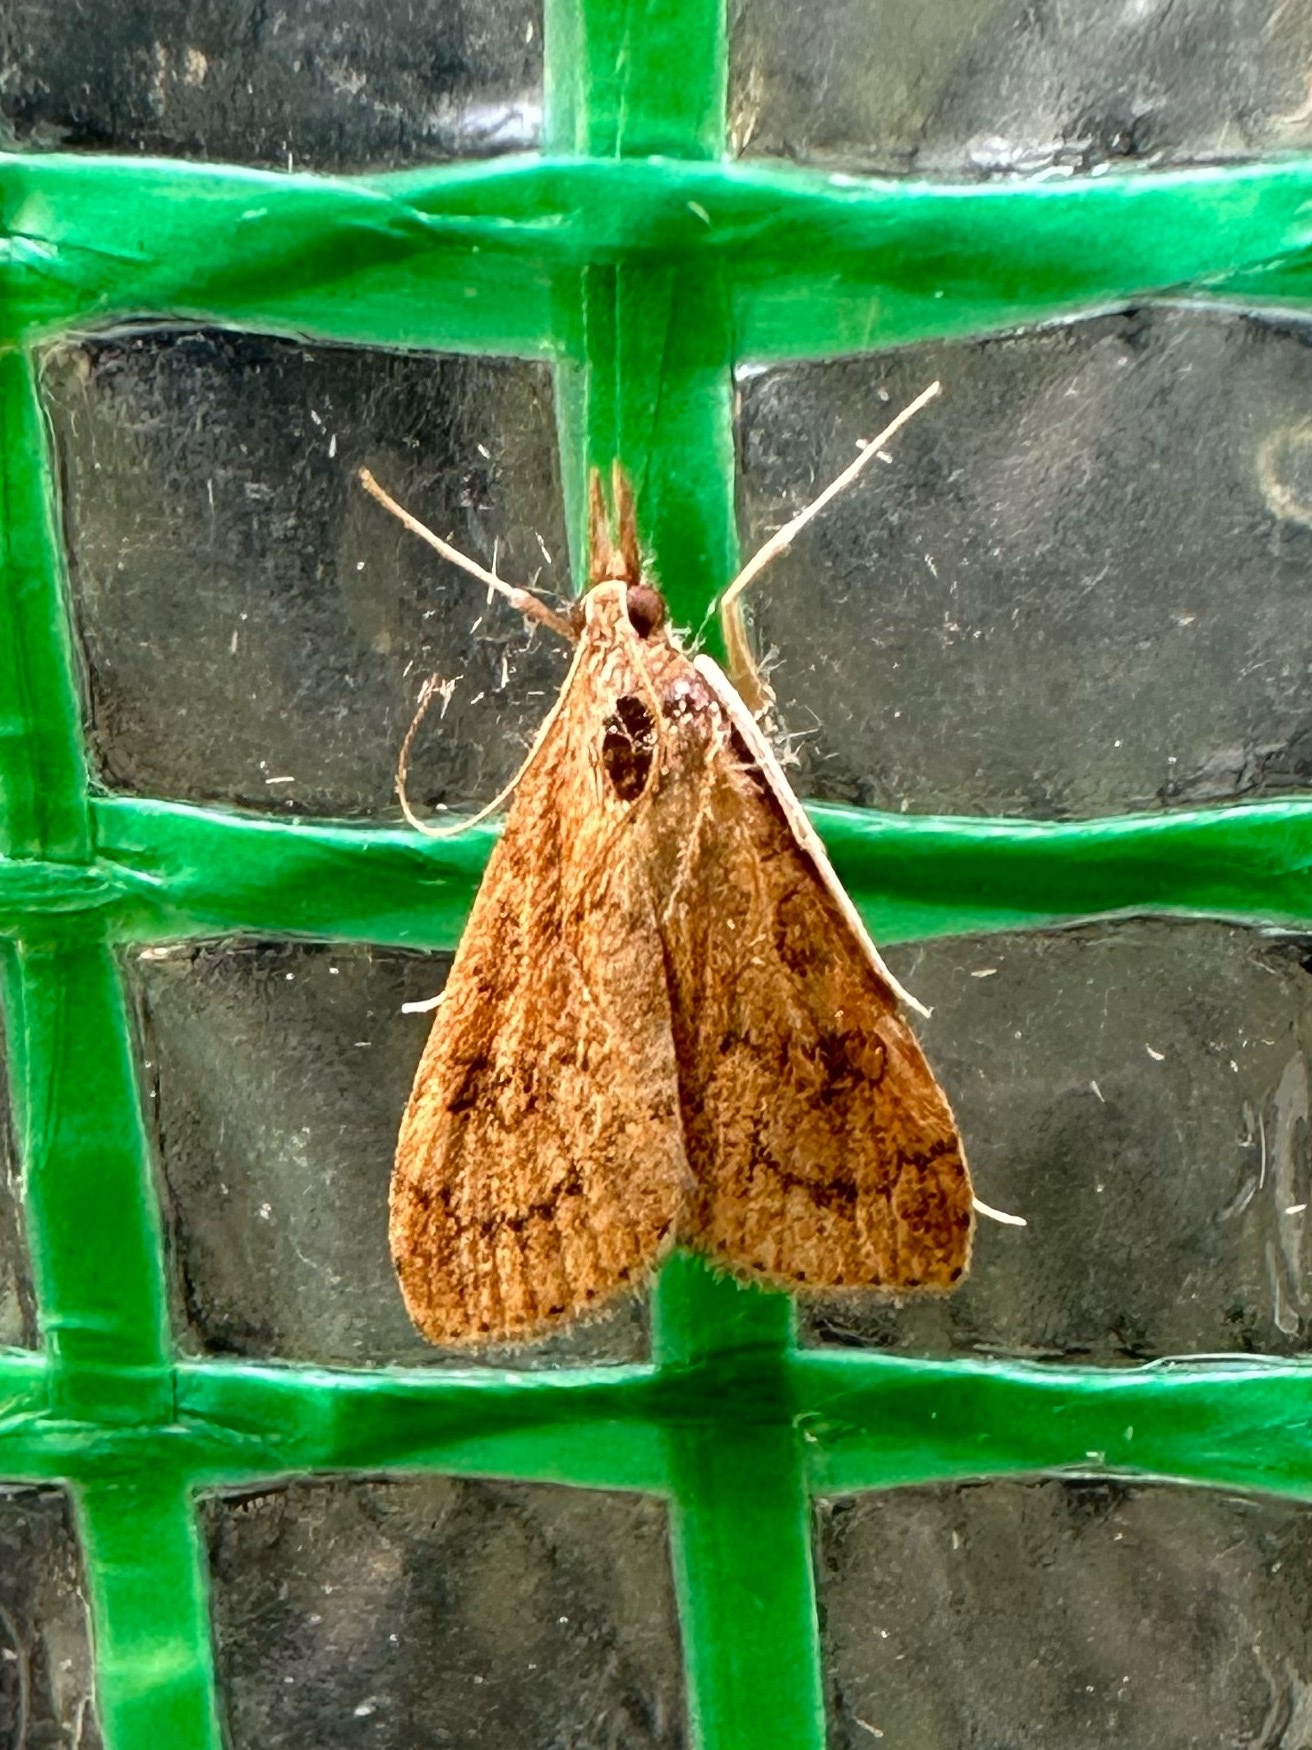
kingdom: Animalia
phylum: Arthropoda
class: Insecta
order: Lepidoptera
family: Crambidae
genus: Udea
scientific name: Udea rubigalis
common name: Celery leaftier moth
